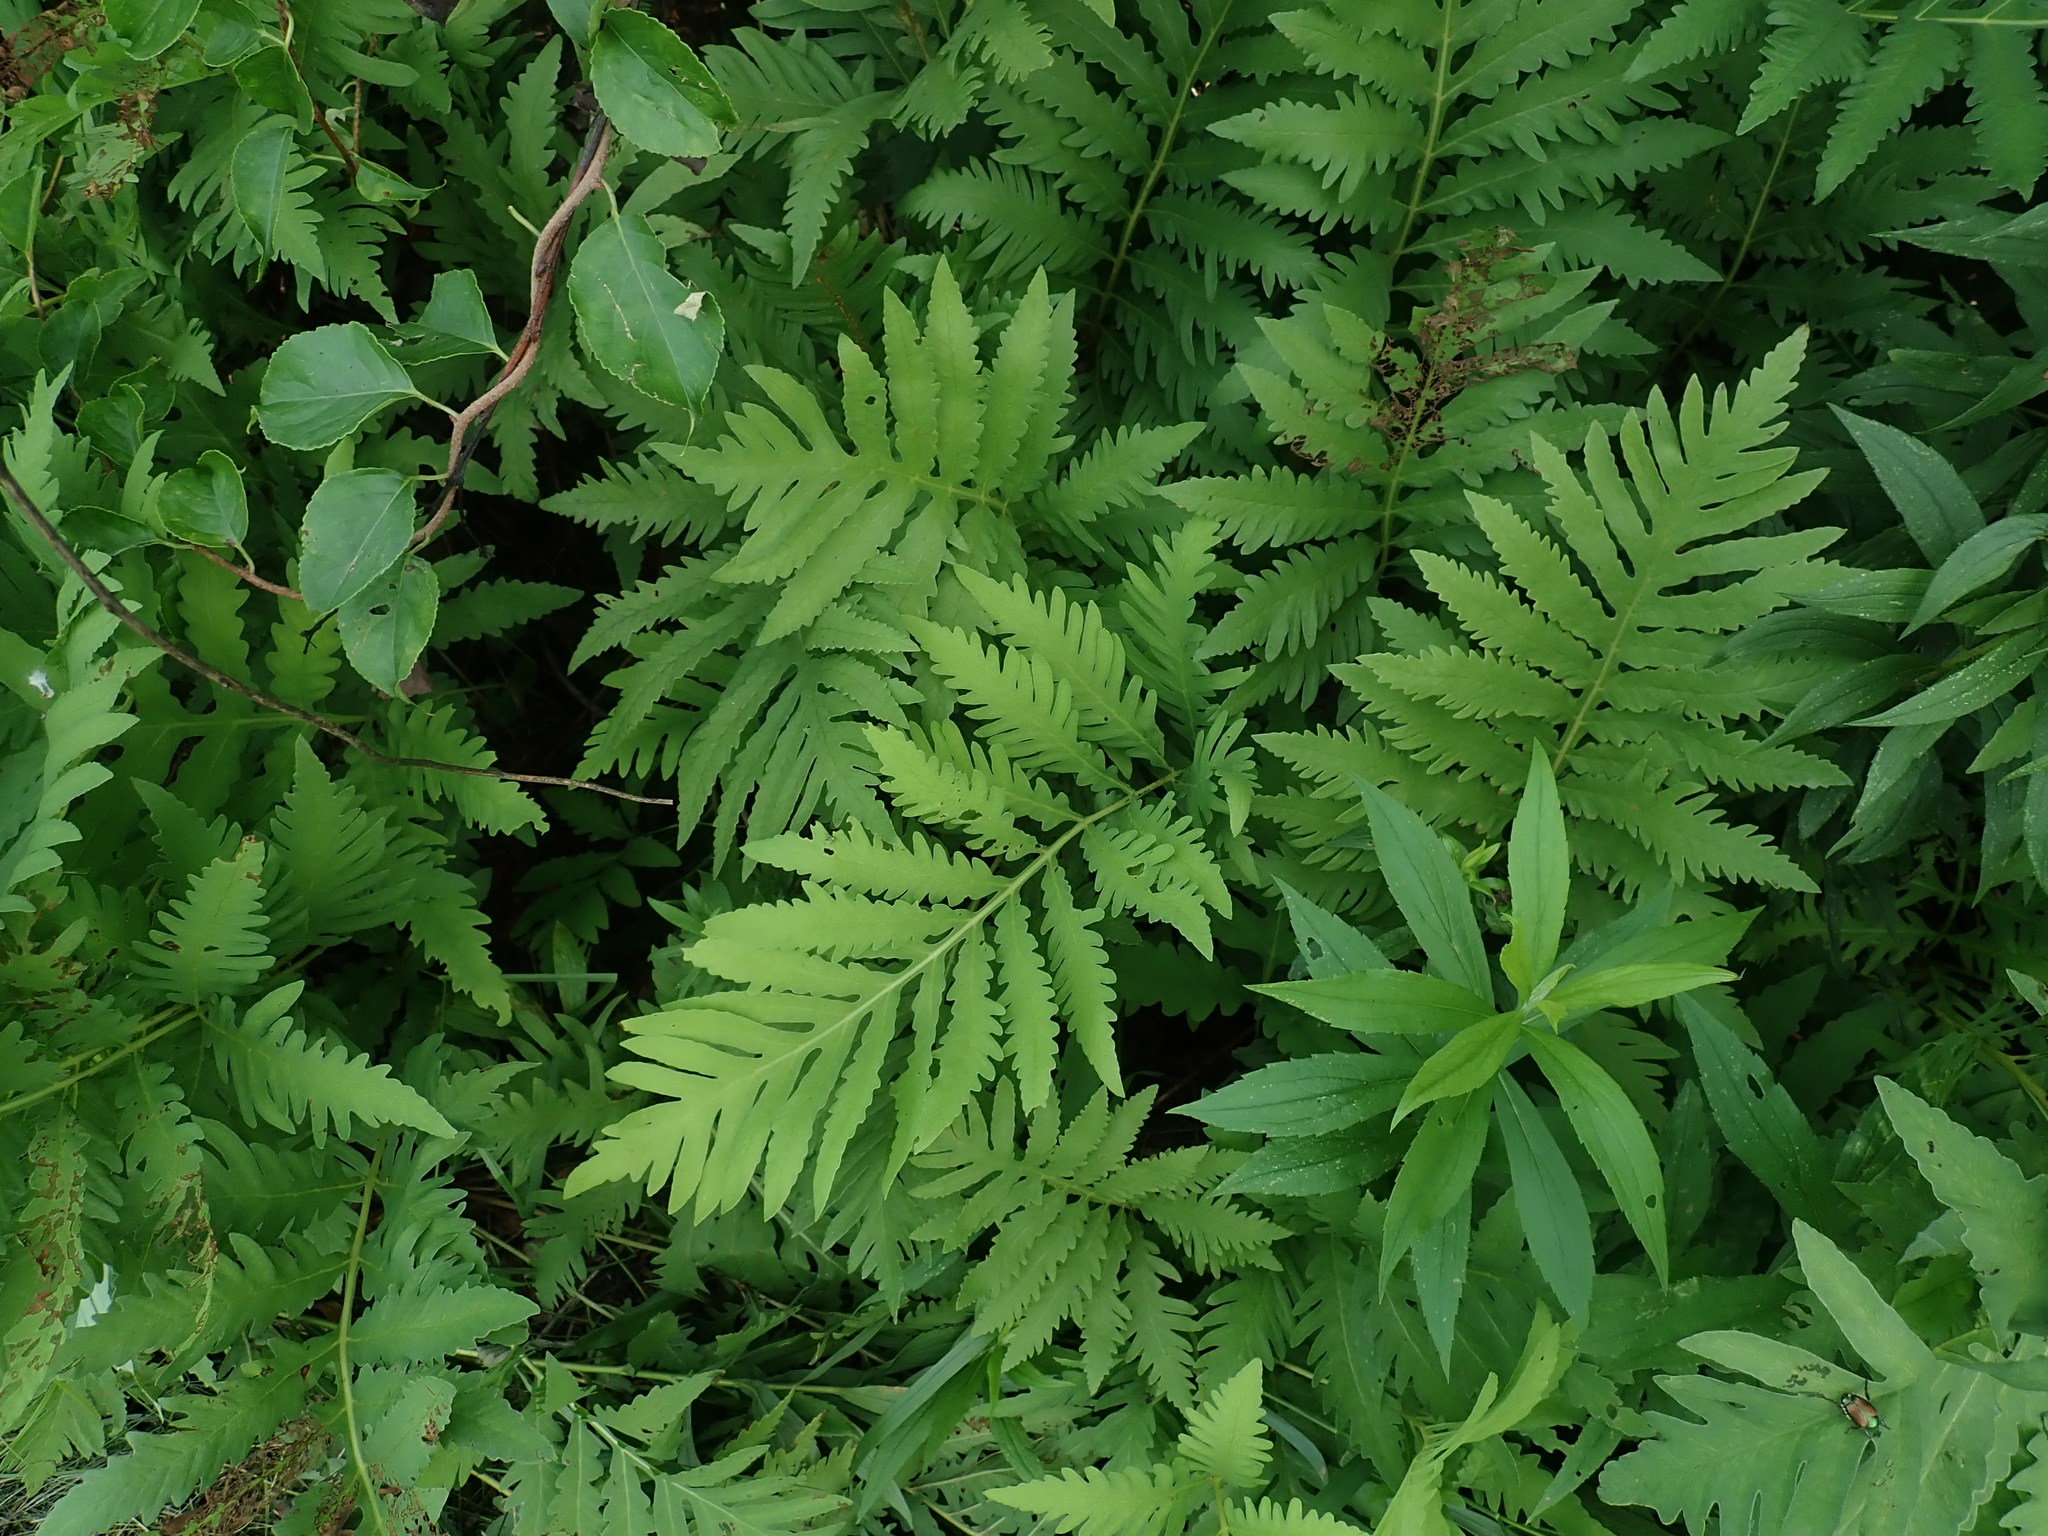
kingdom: Plantae
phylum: Tracheophyta
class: Polypodiopsida
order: Polypodiales
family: Onocleaceae
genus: Onoclea
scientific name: Onoclea sensibilis
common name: Sensitive fern
